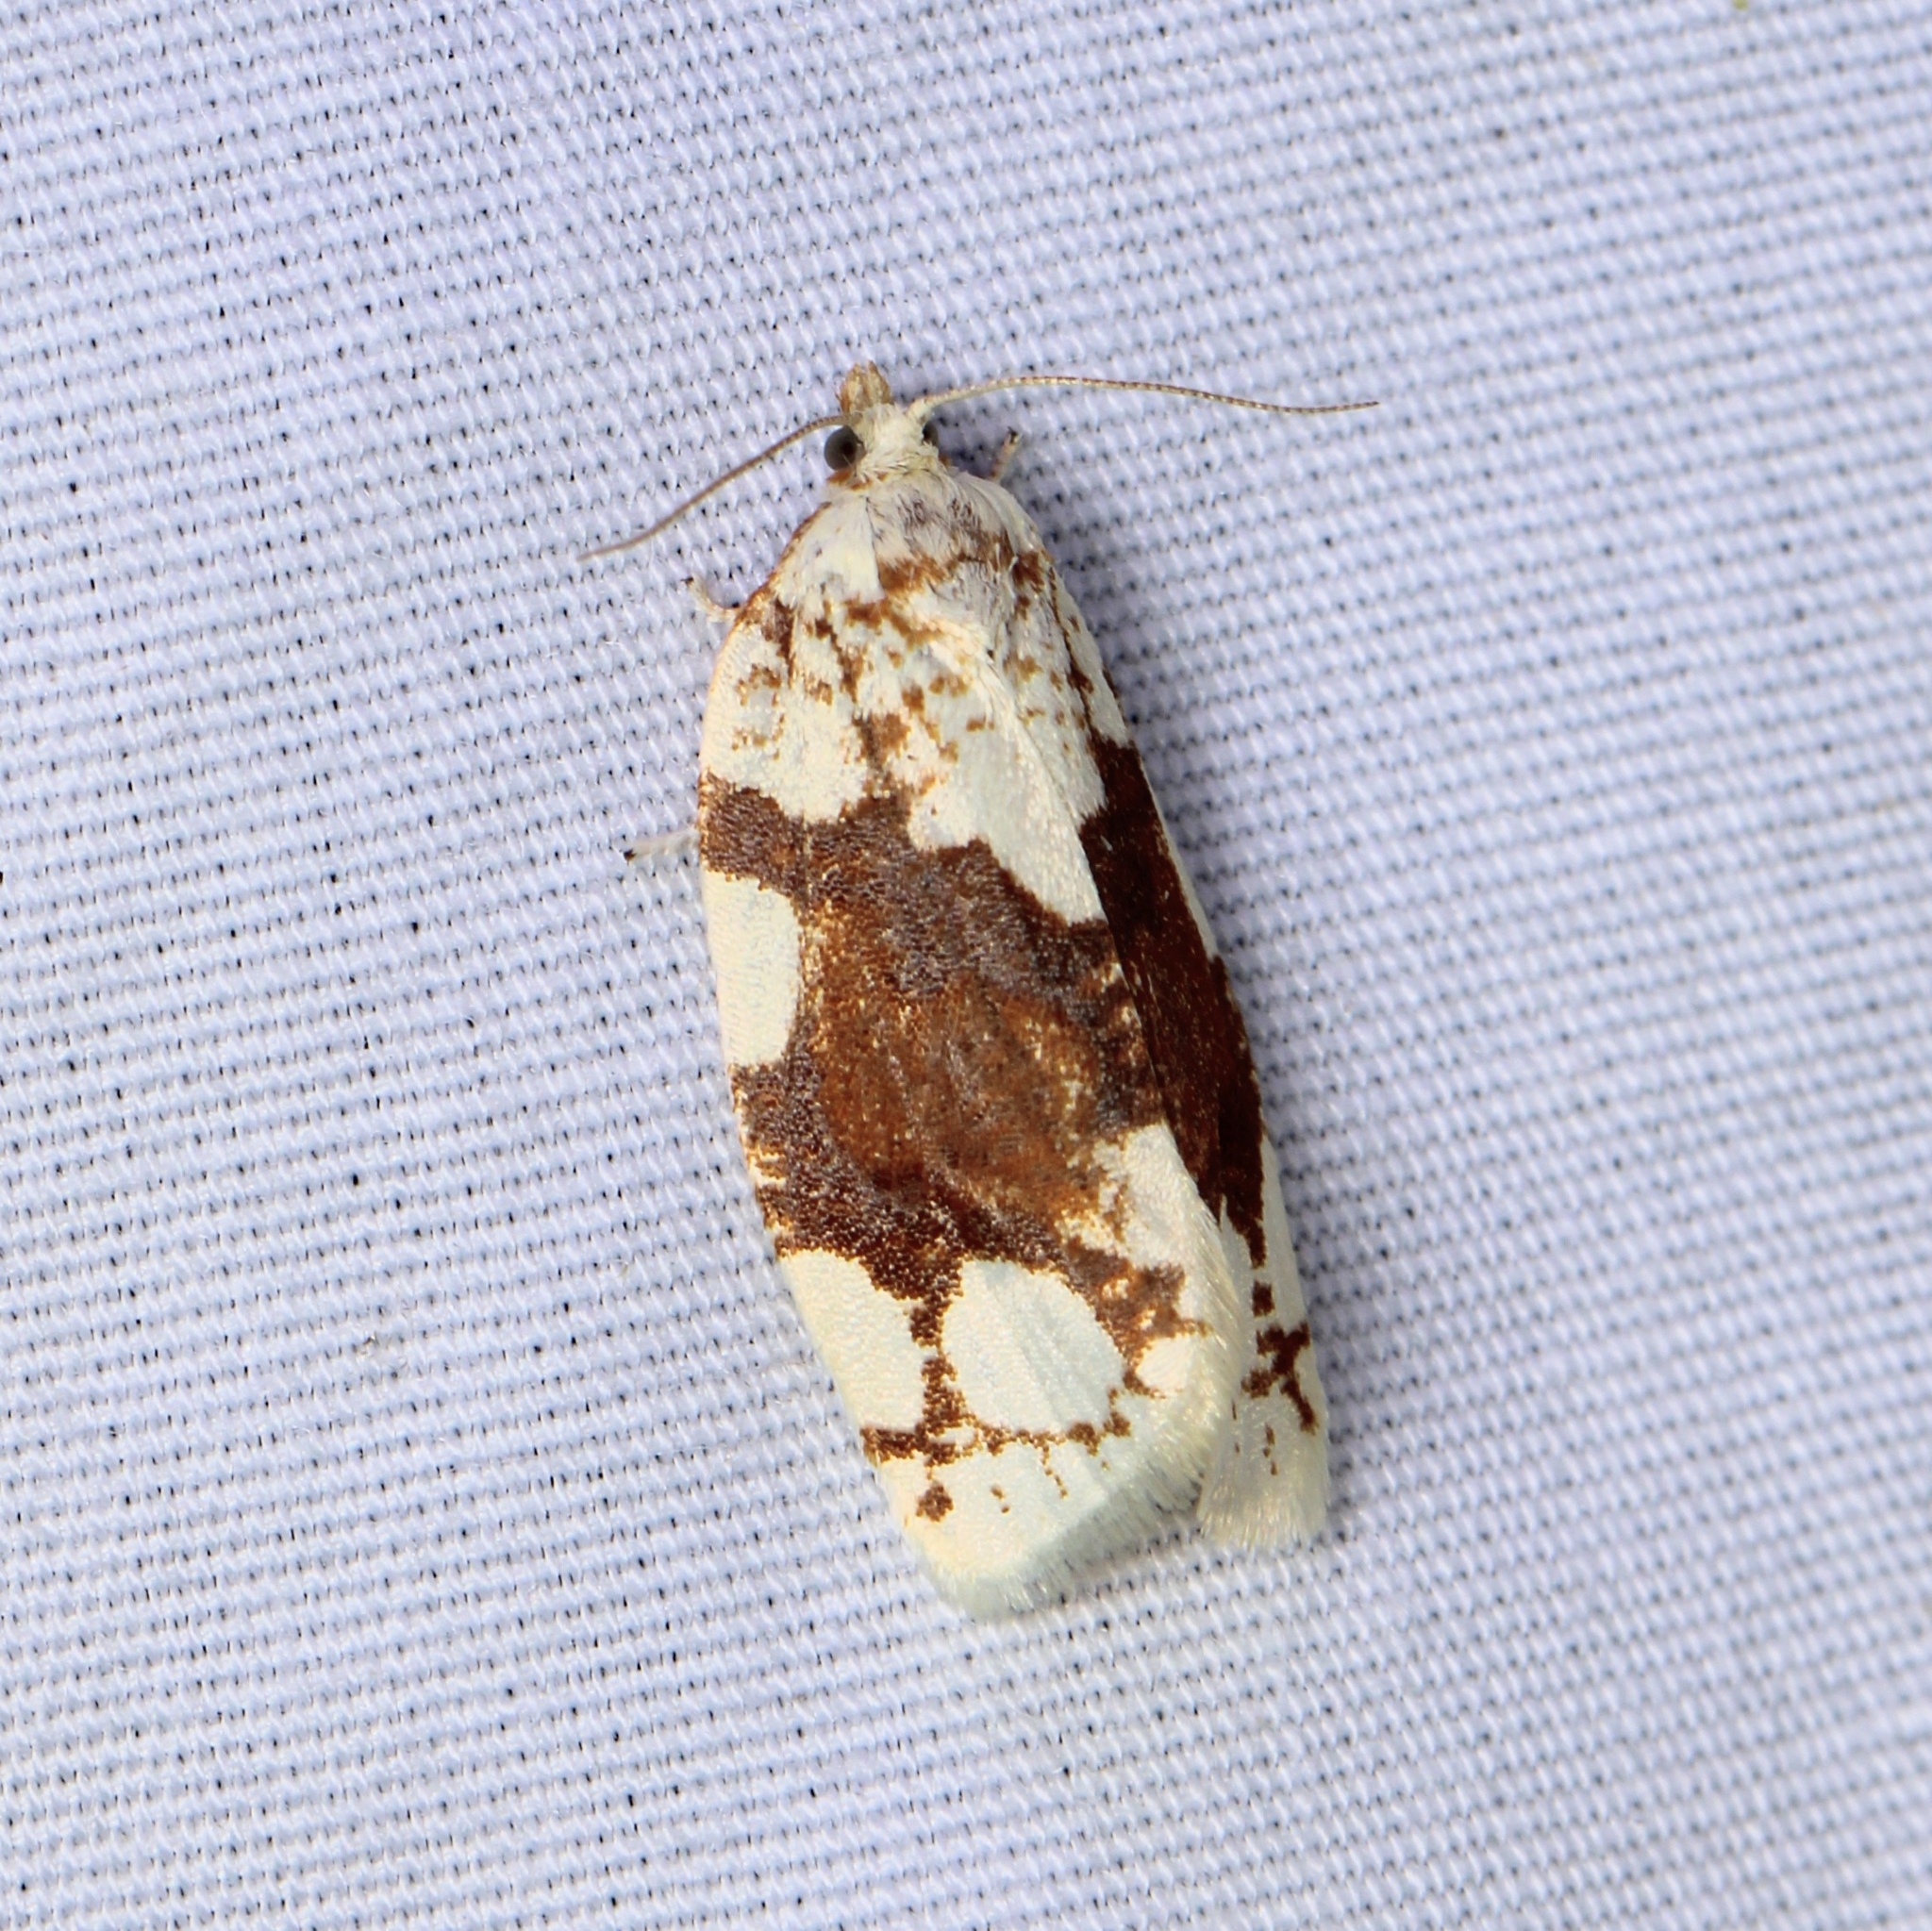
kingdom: Animalia
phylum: Arthropoda
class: Insecta
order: Lepidoptera
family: Tortricidae
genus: Argyrotaenia
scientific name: Argyrotaenia alisellana
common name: White-spotted leafroller moth
